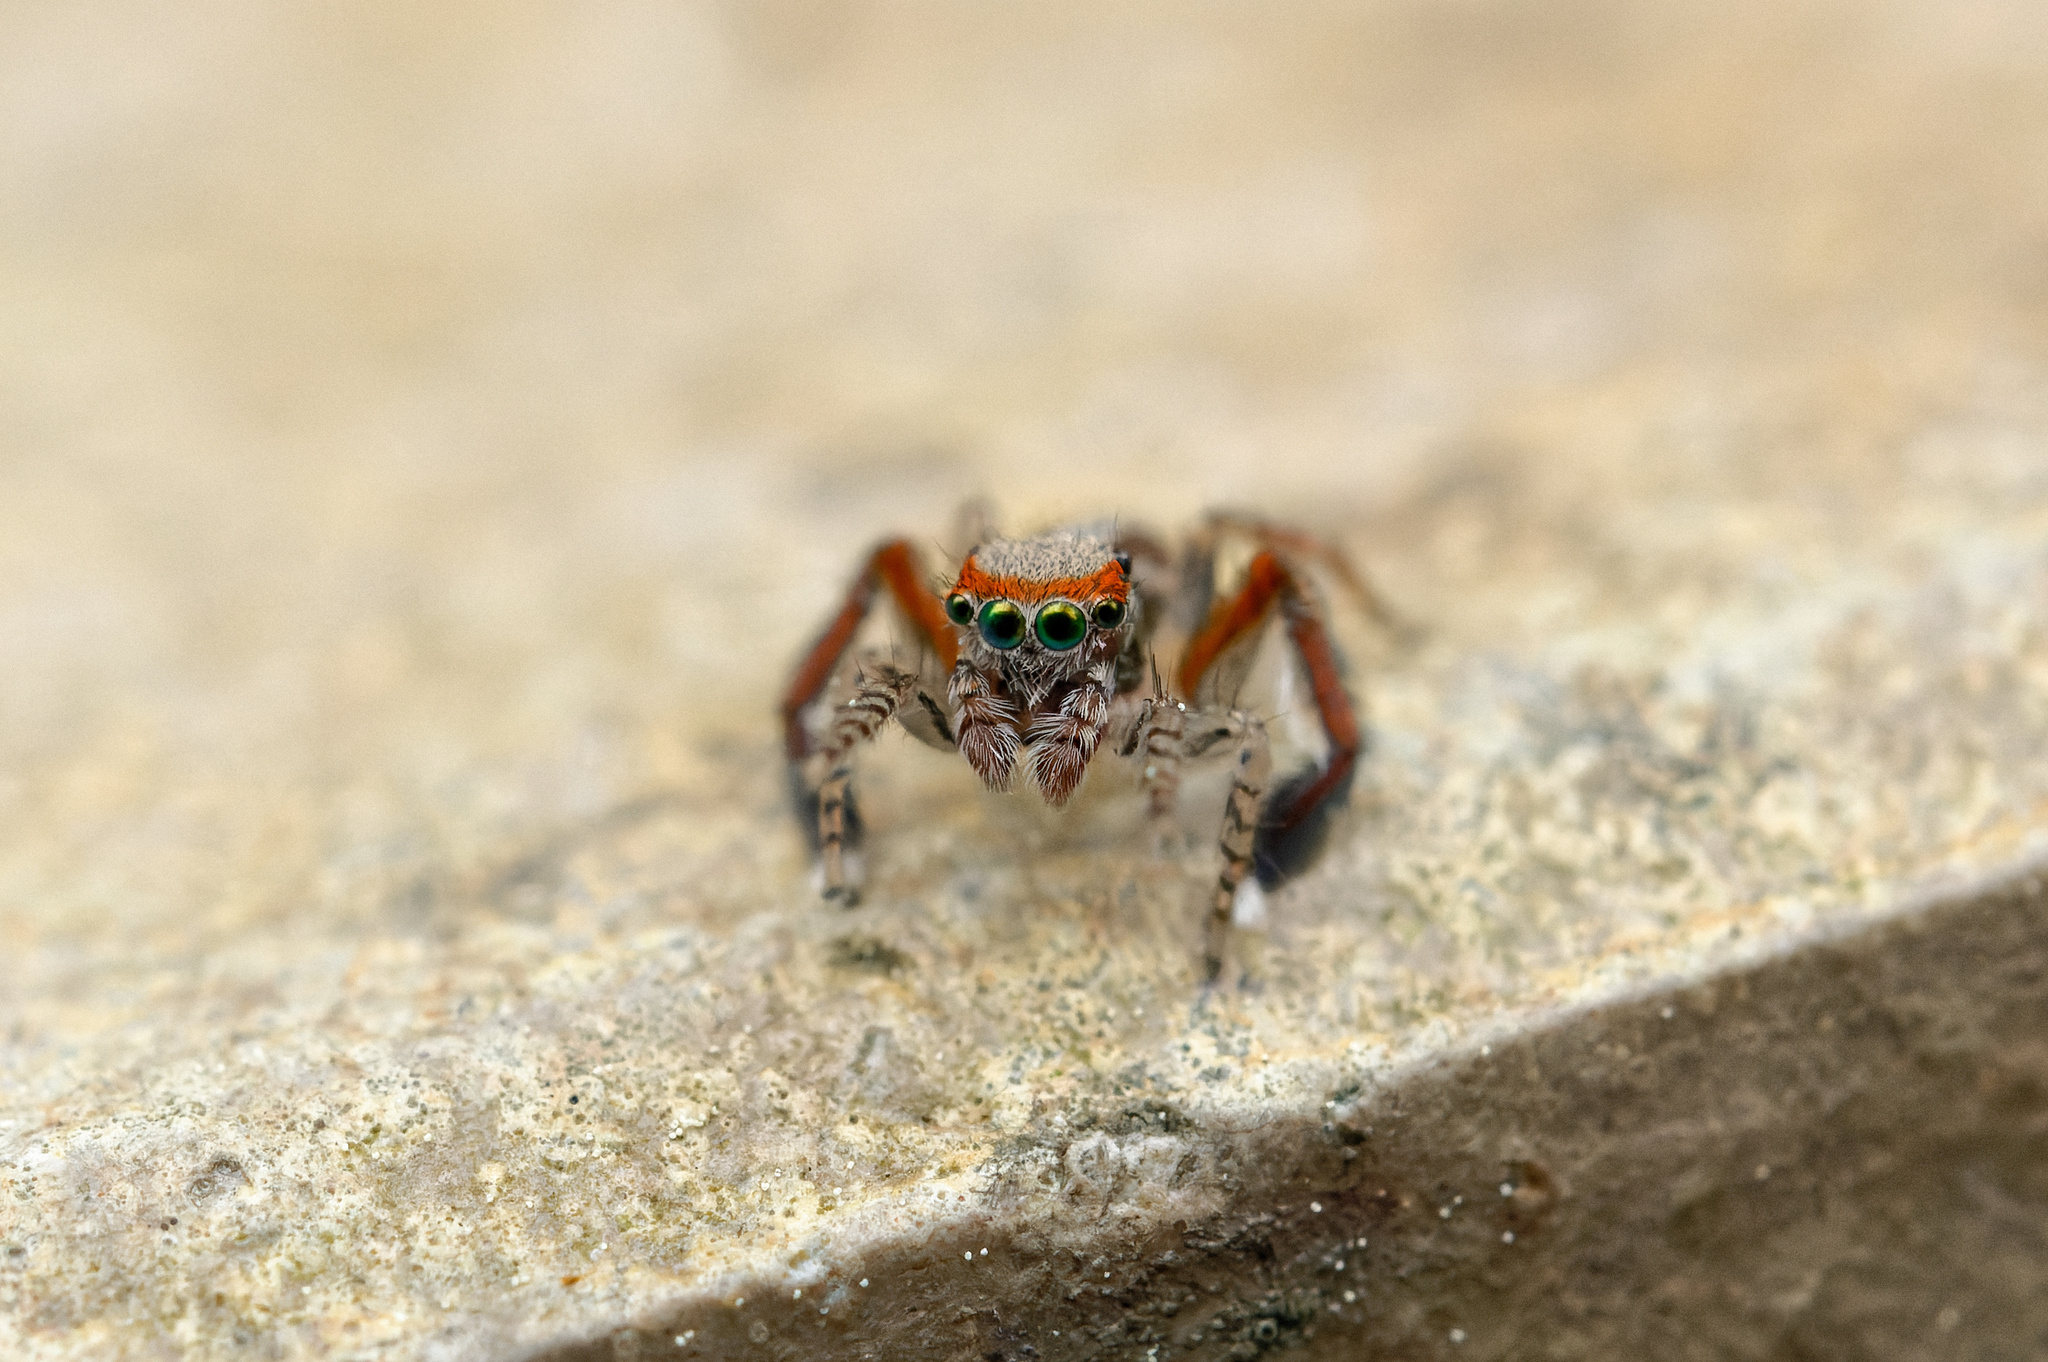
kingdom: Animalia
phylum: Arthropoda
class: Arachnida
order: Araneae
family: Salticidae
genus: Saitis
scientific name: Saitis barbipes
